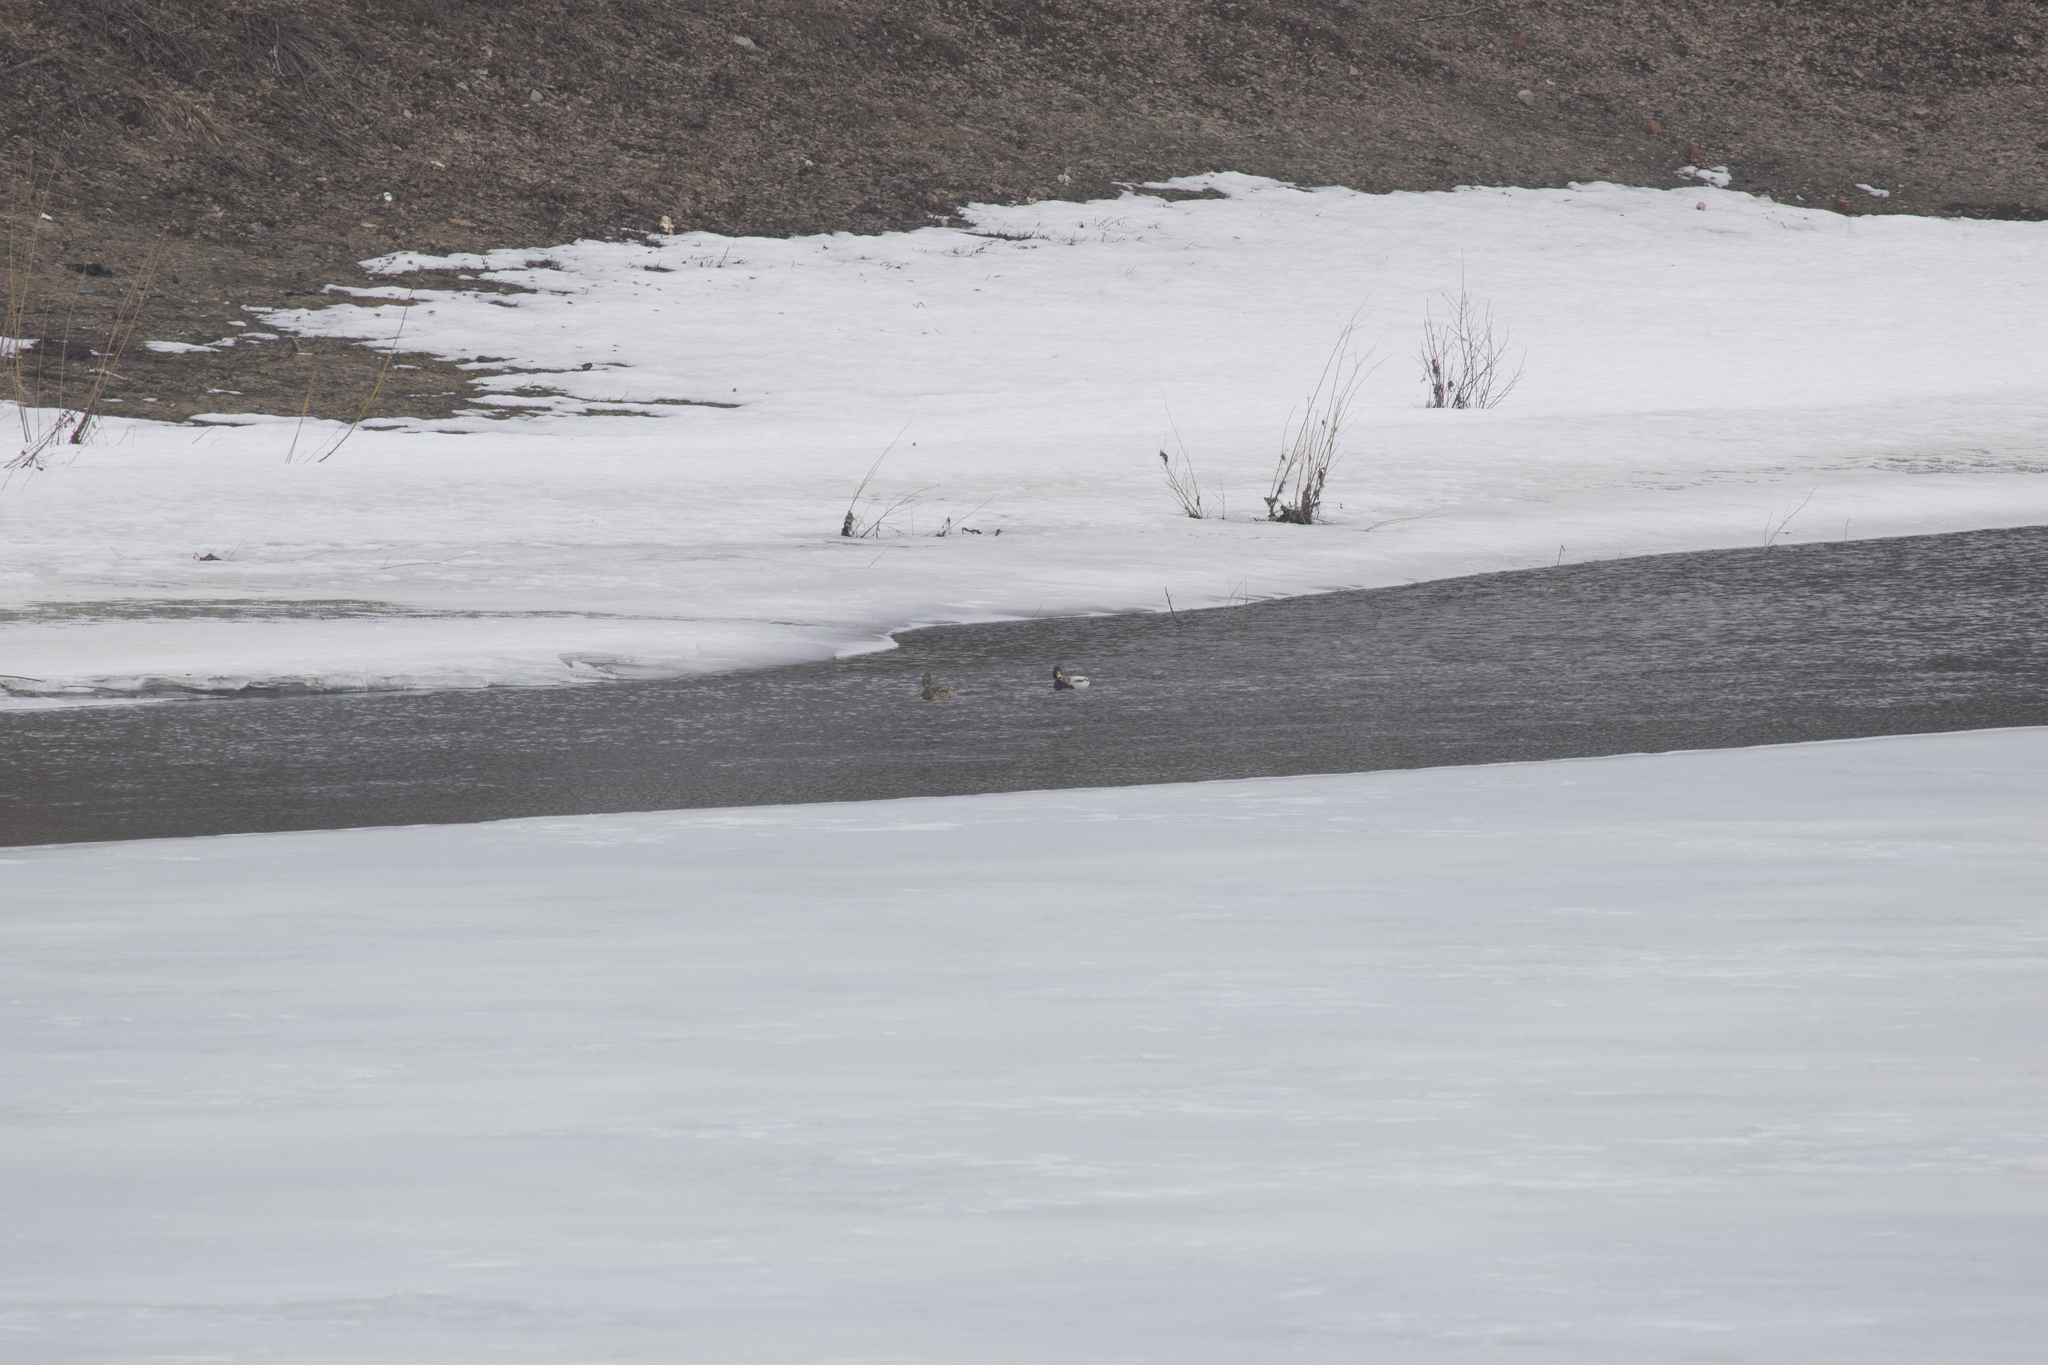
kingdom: Animalia
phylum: Chordata
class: Aves
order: Anseriformes
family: Anatidae
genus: Anas
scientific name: Anas platyrhynchos
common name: Mallard
